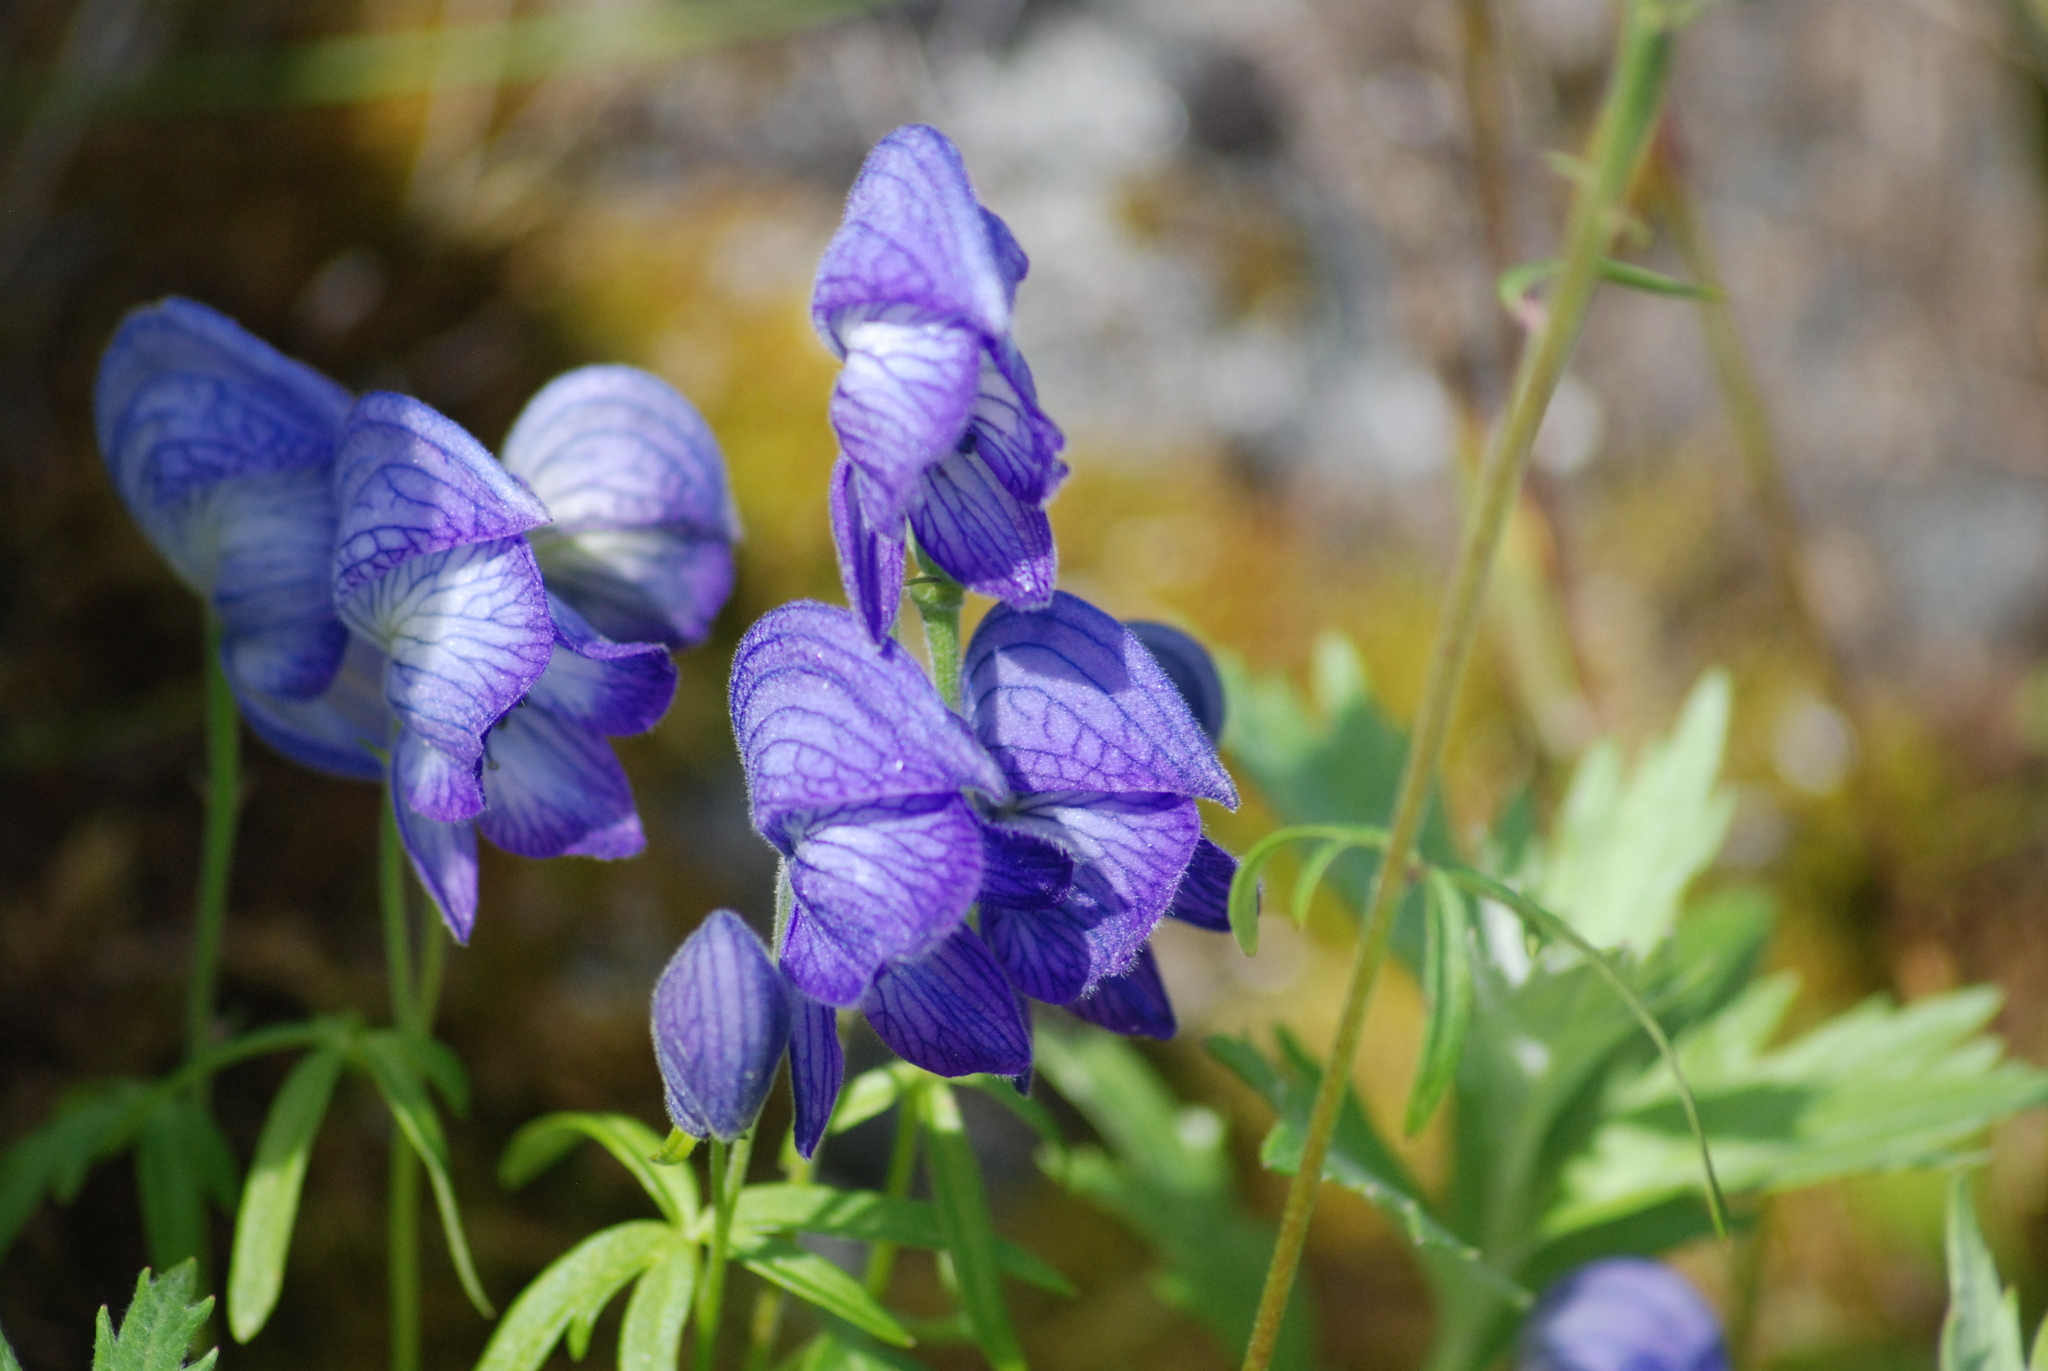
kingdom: Plantae
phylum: Tracheophyta
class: Magnoliopsida
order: Ranunculales
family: Ranunculaceae
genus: Aconitum
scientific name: Aconitum delphiniifolium
